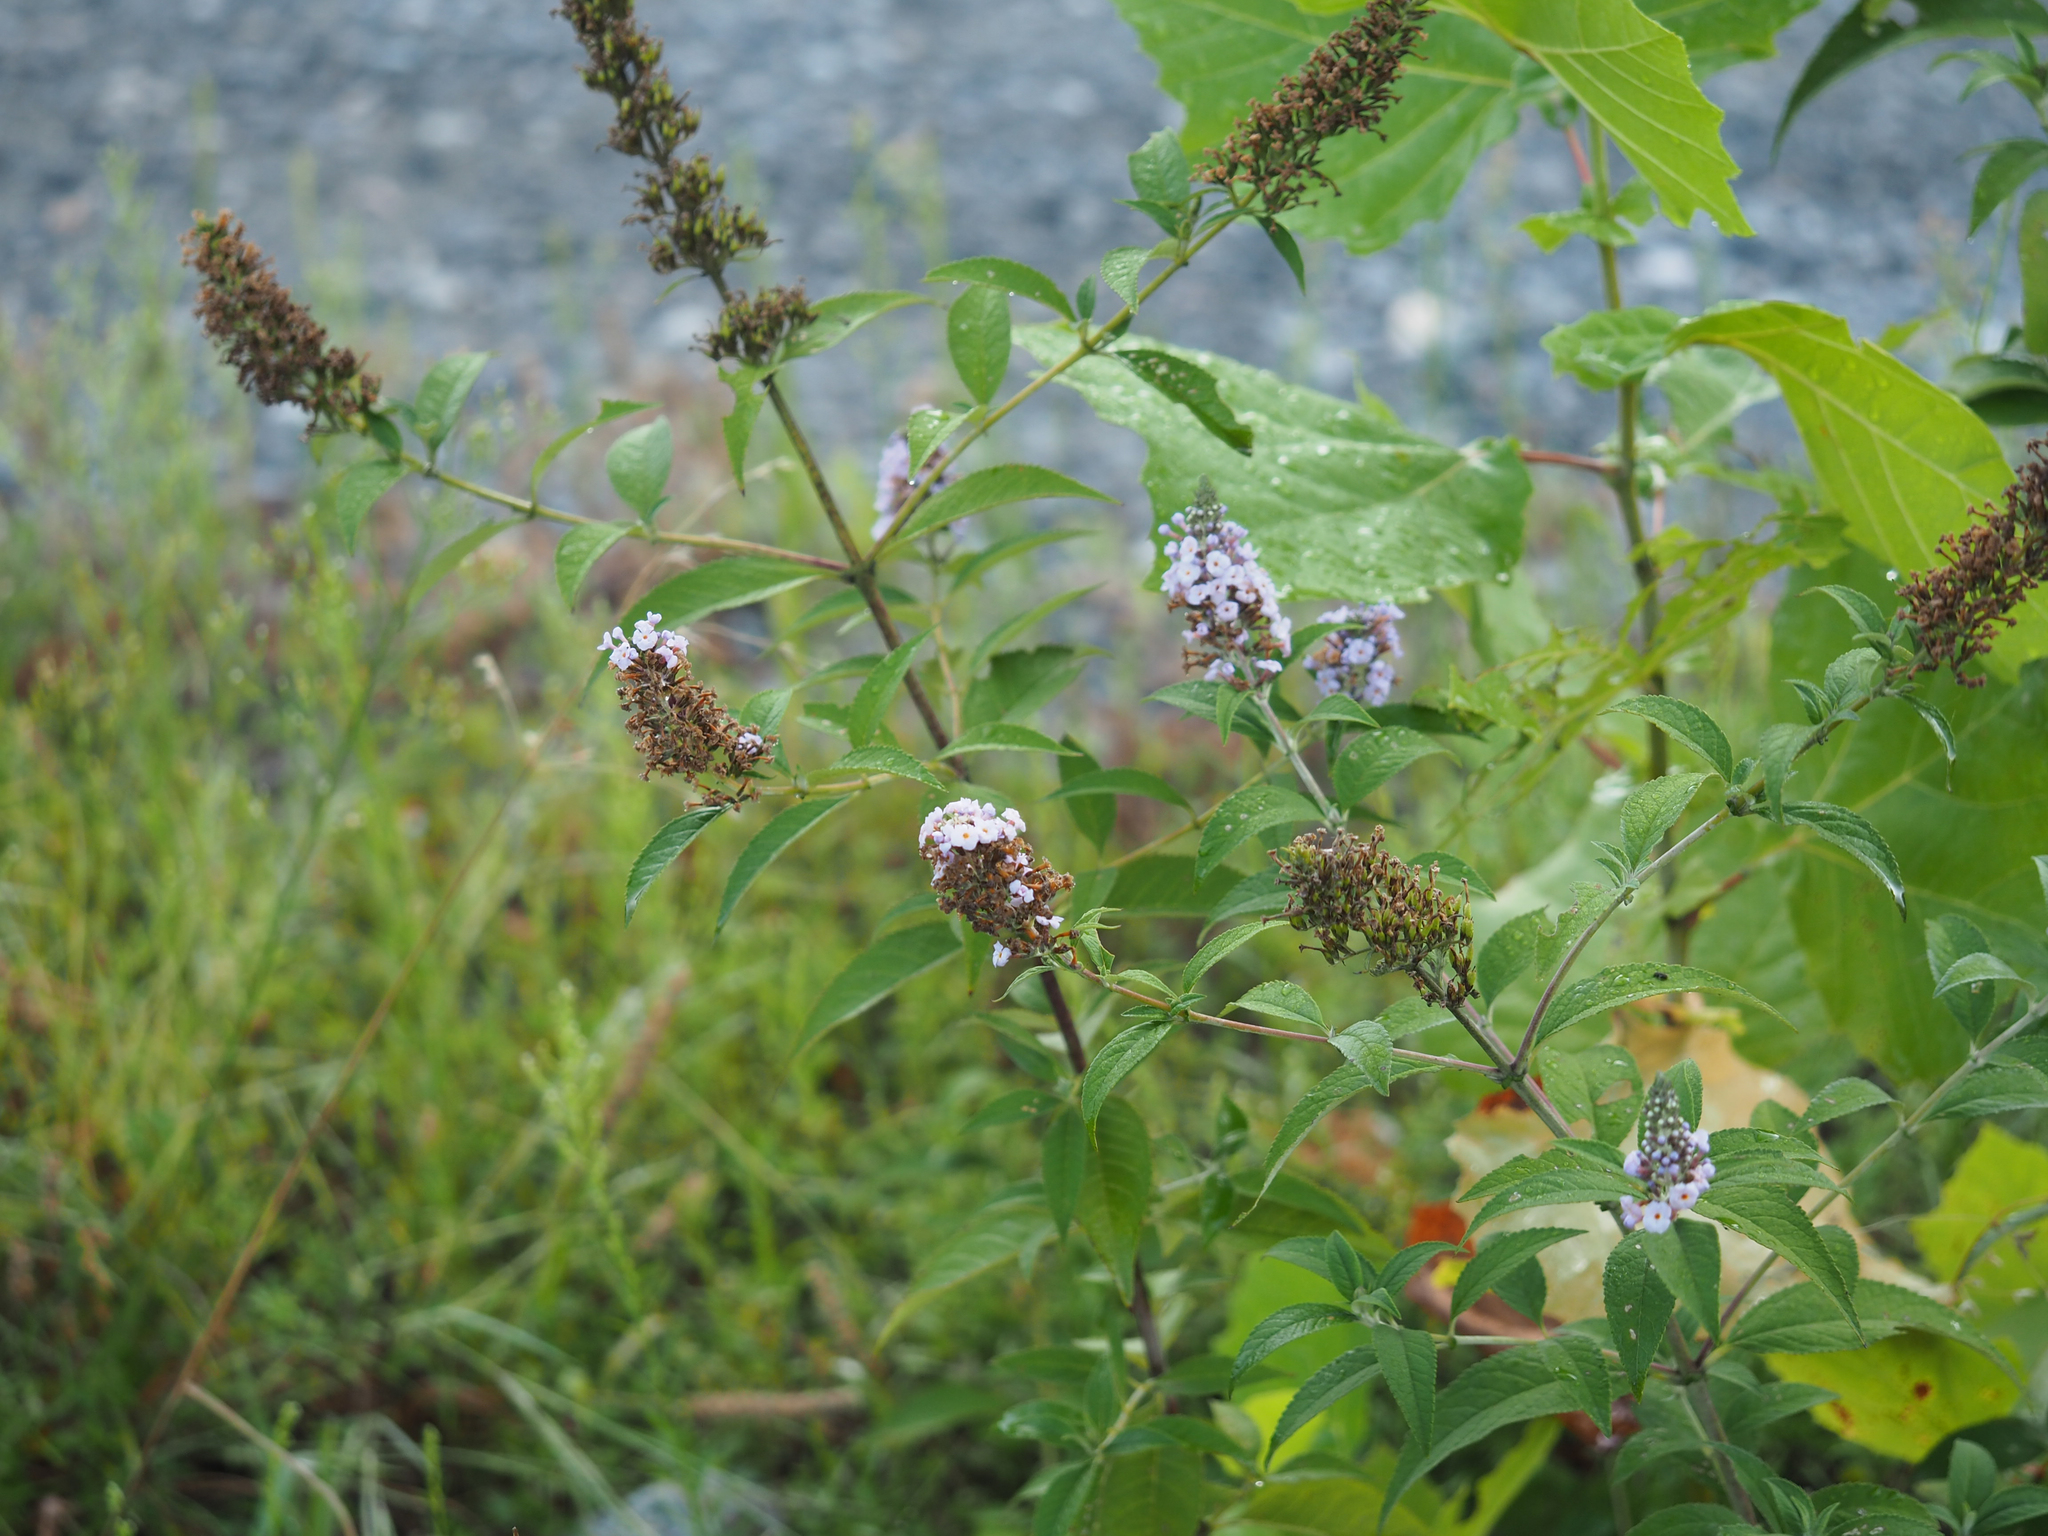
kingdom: Plantae
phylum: Tracheophyta
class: Magnoliopsida
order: Lamiales
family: Scrophulariaceae
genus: Buddleja
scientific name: Buddleja davidii
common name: Butterfly-bush
